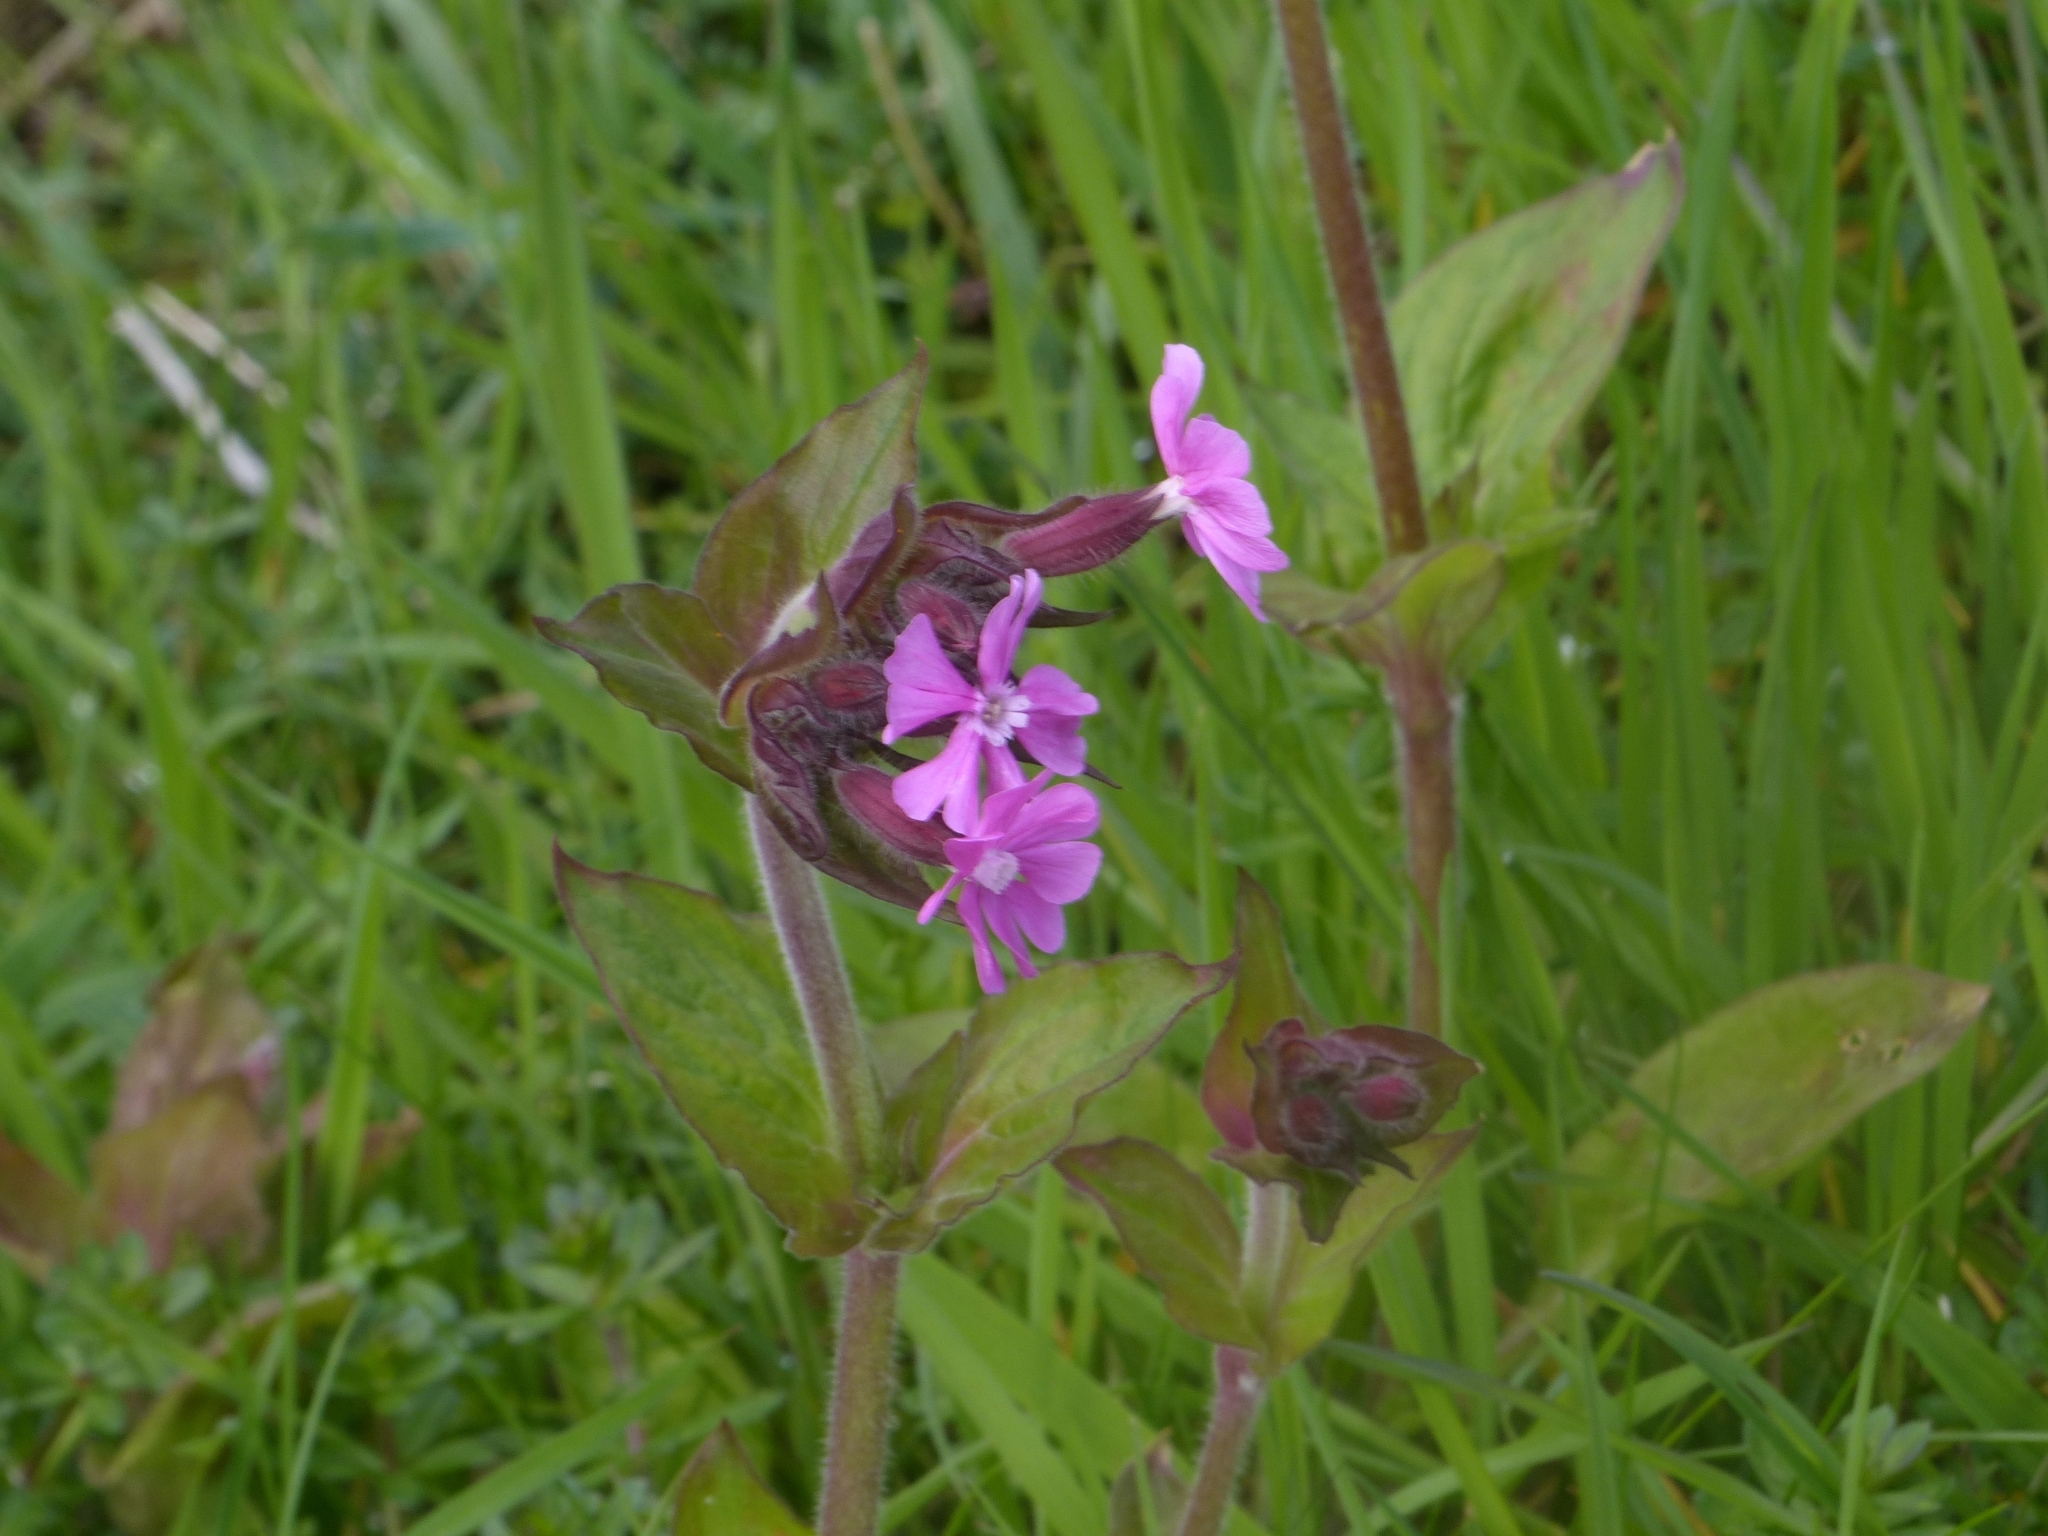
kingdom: Plantae
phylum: Tracheophyta
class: Magnoliopsida
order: Caryophyllales
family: Caryophyllaceae
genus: Silene
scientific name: Silene dioica
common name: Red campion
